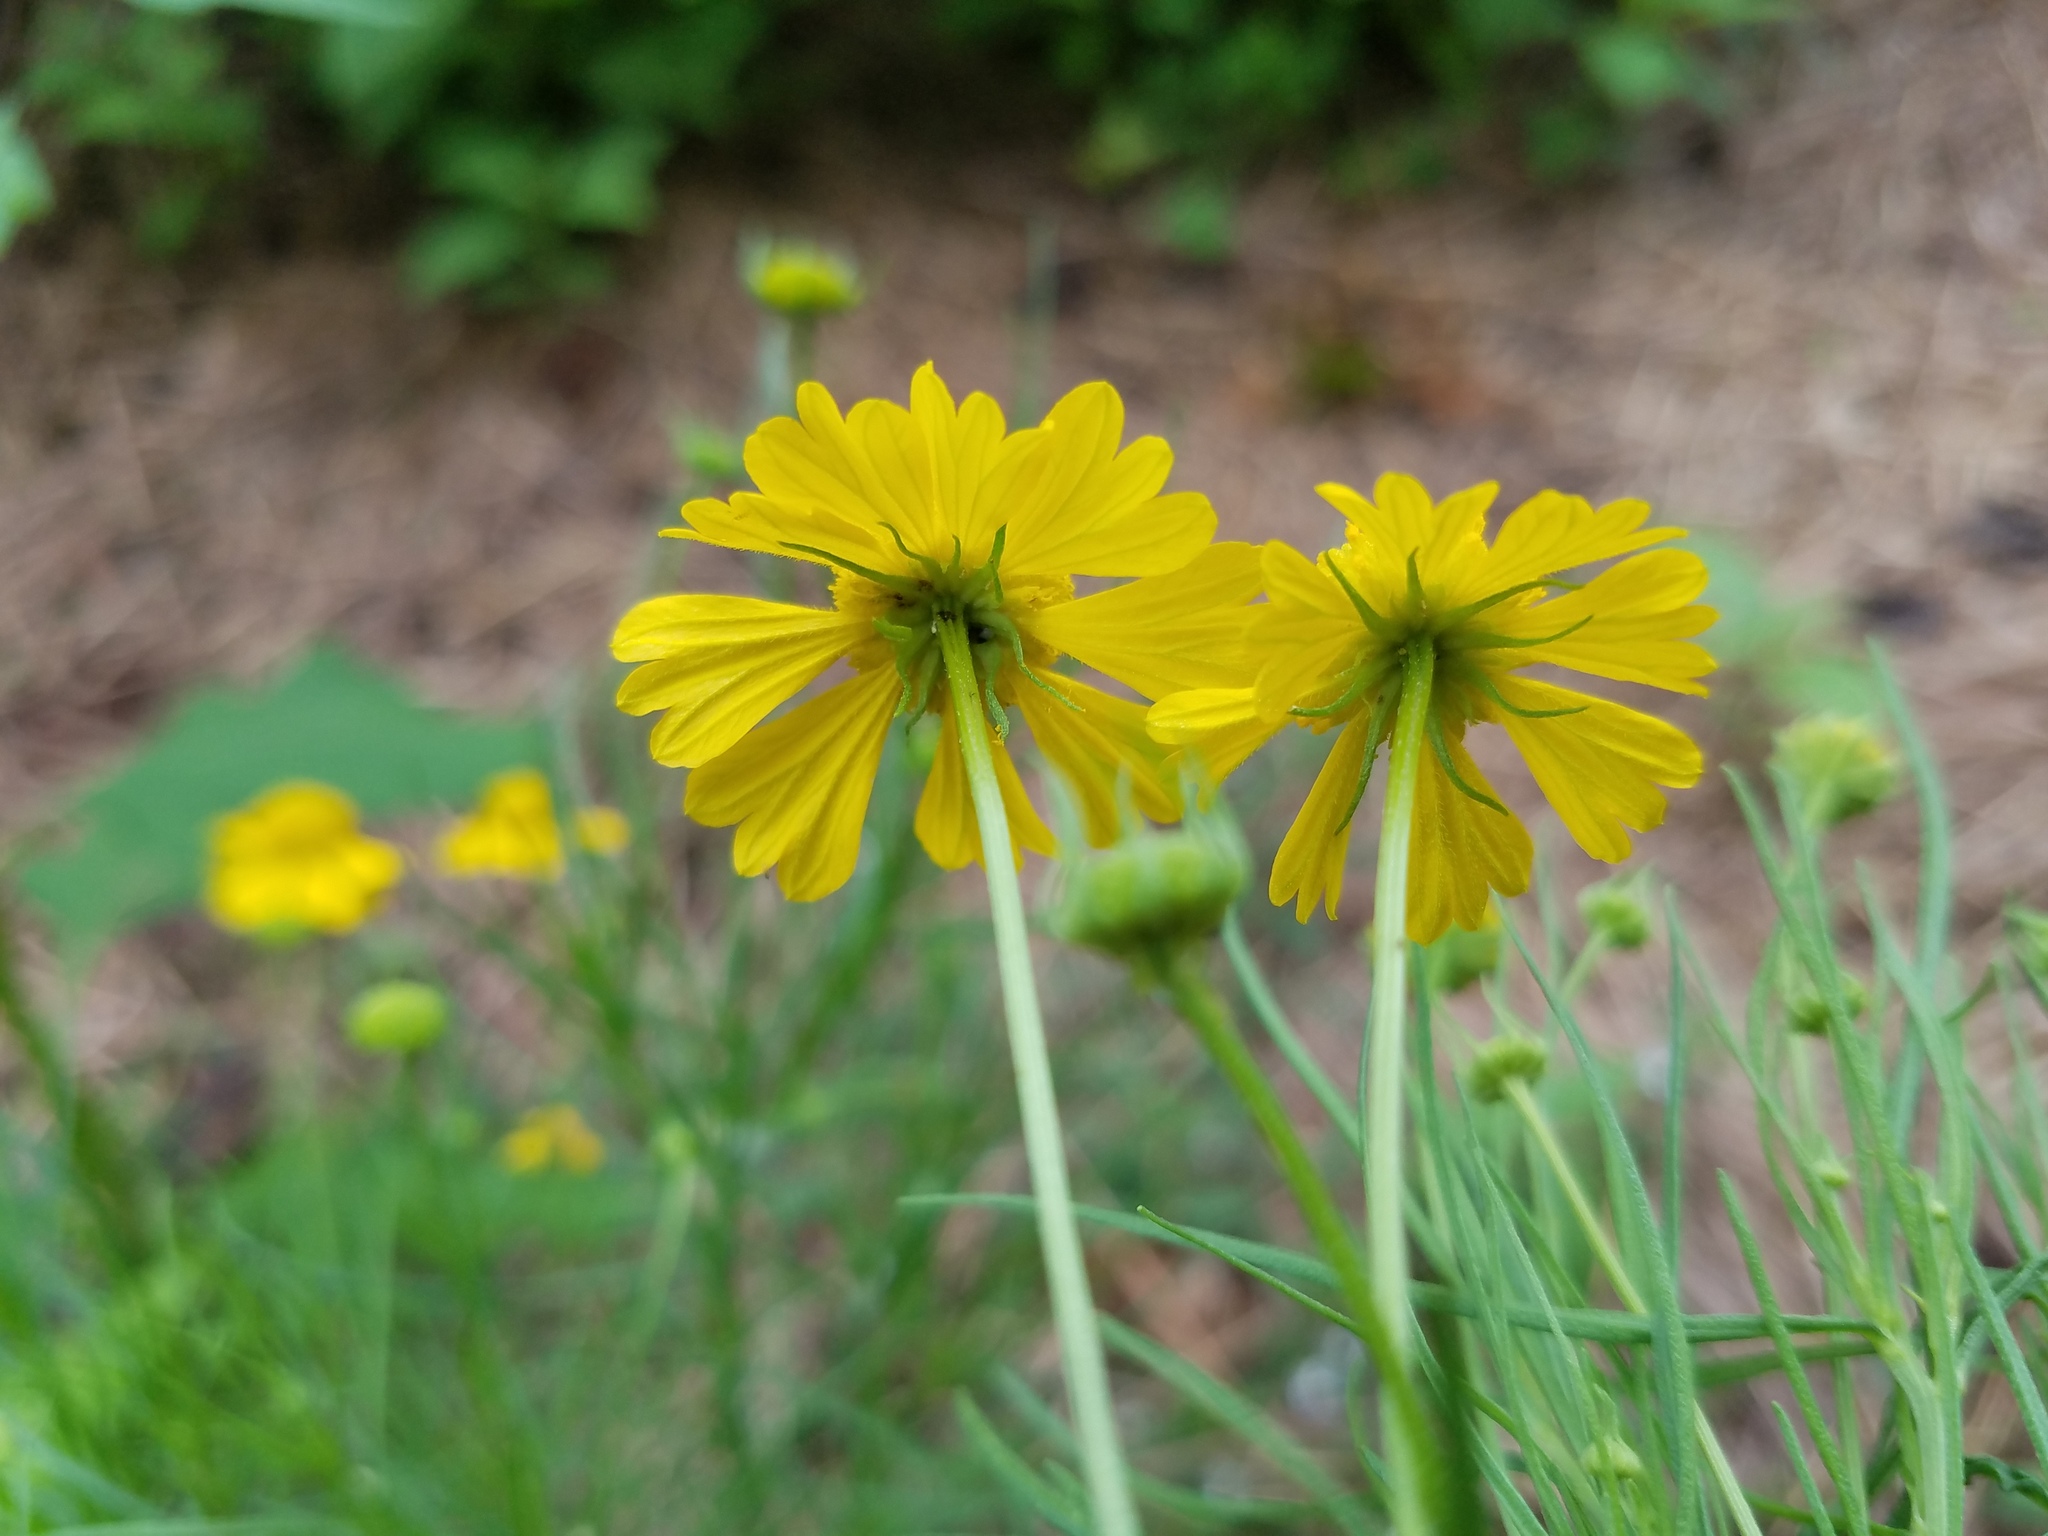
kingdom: Plantae
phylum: Tracheophyta
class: Magnoliopsida
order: Asterales
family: Asteraceae
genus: Helenium
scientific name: Helenium amarum
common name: Bitter sneezeweed
